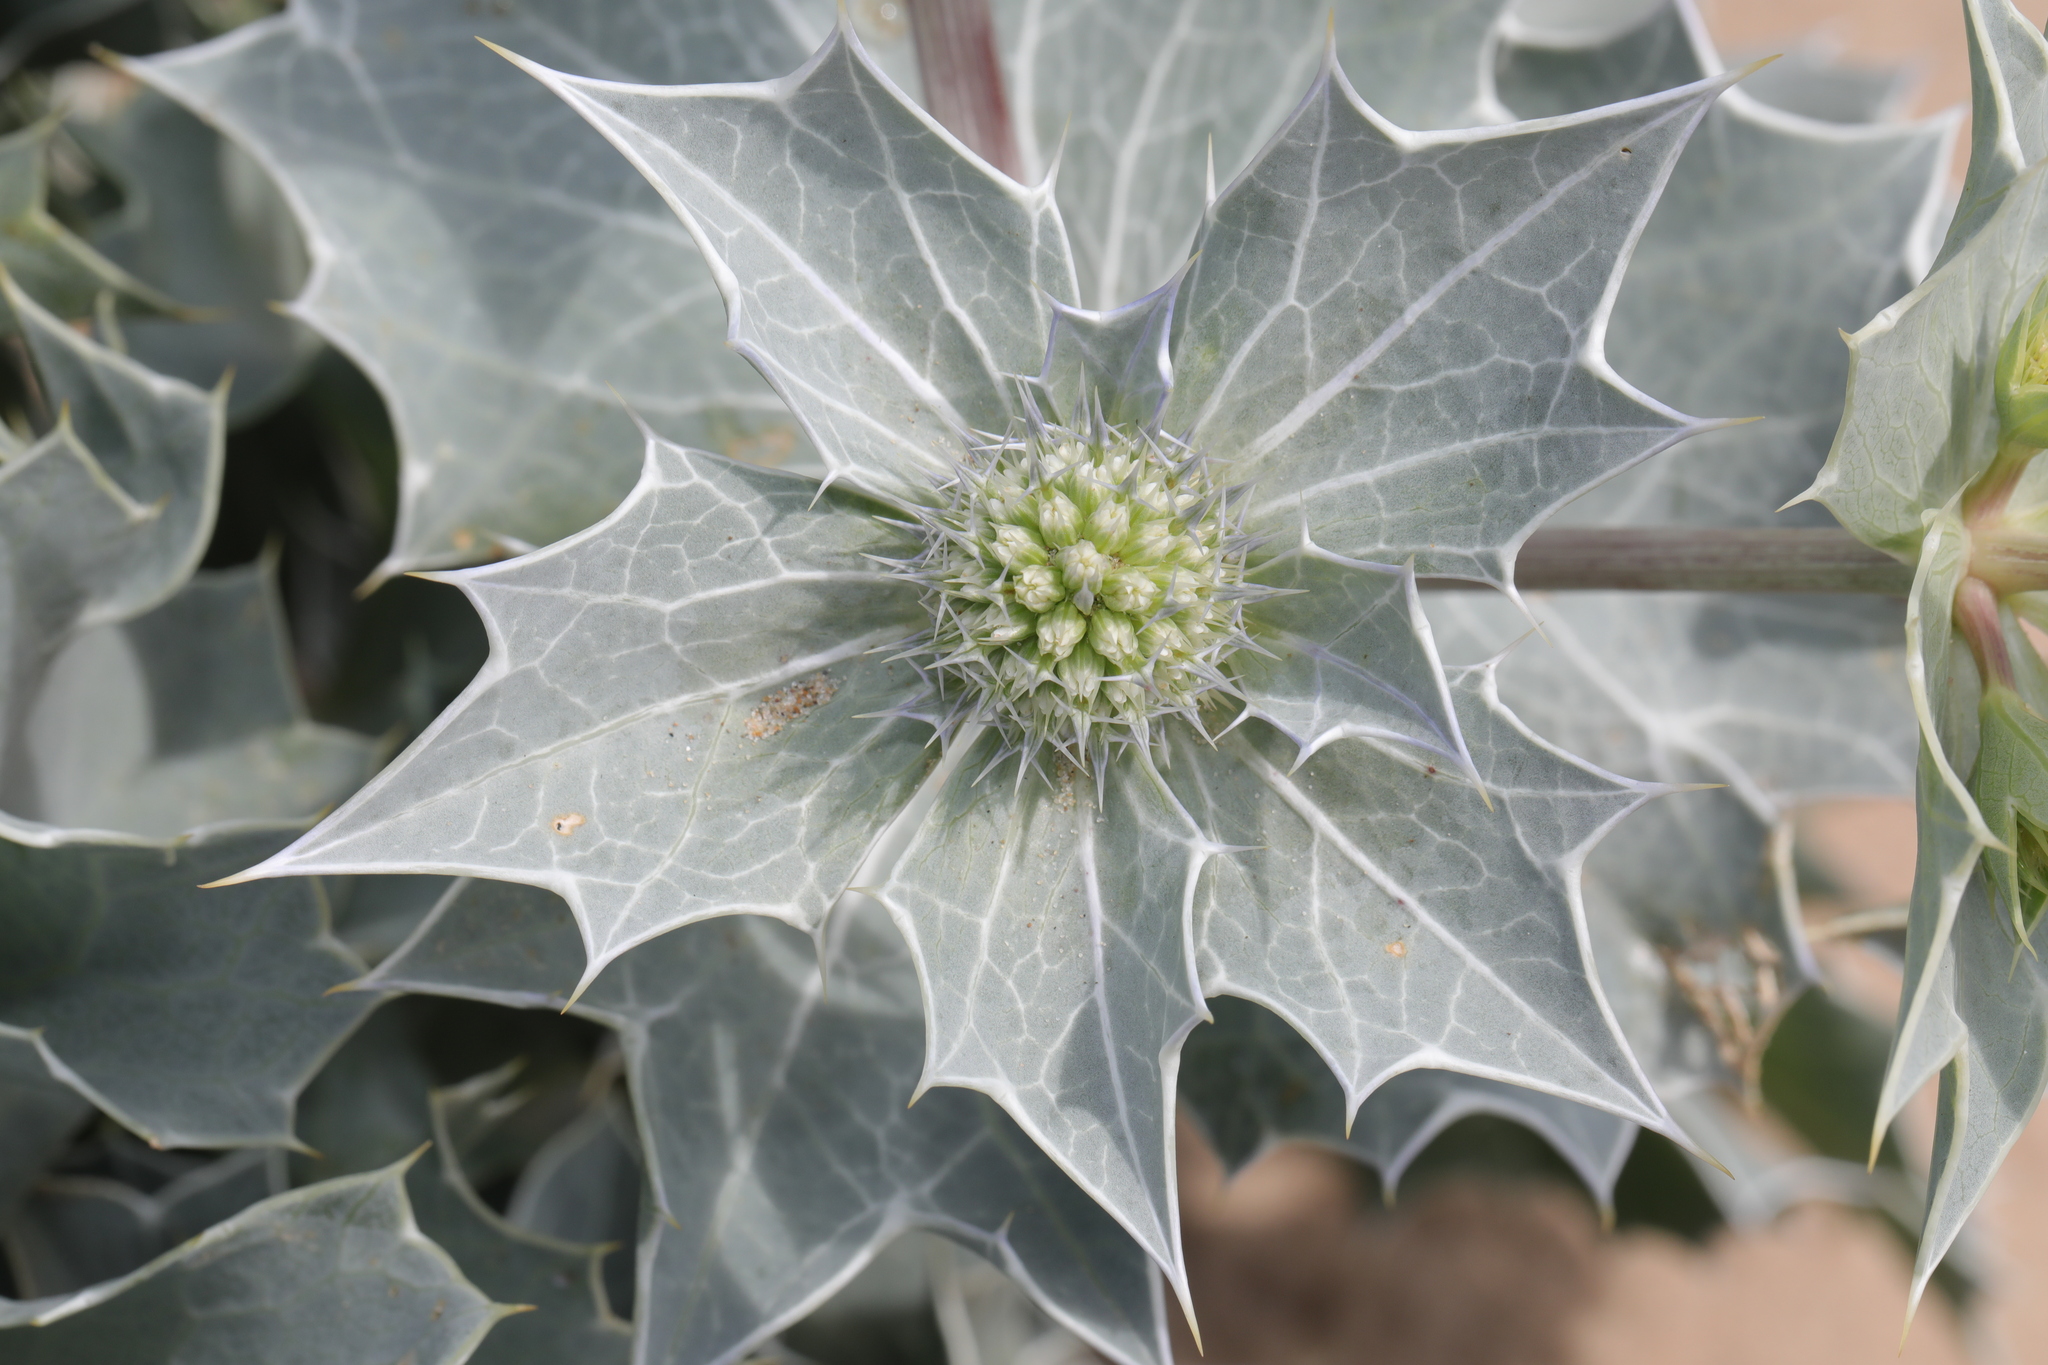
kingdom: Plantae
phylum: Tracheophyta
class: Magnoliopsida
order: Apiales
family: Apiaceae
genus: Eryngium
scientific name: Eryngium maritimum
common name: Sea-holly
